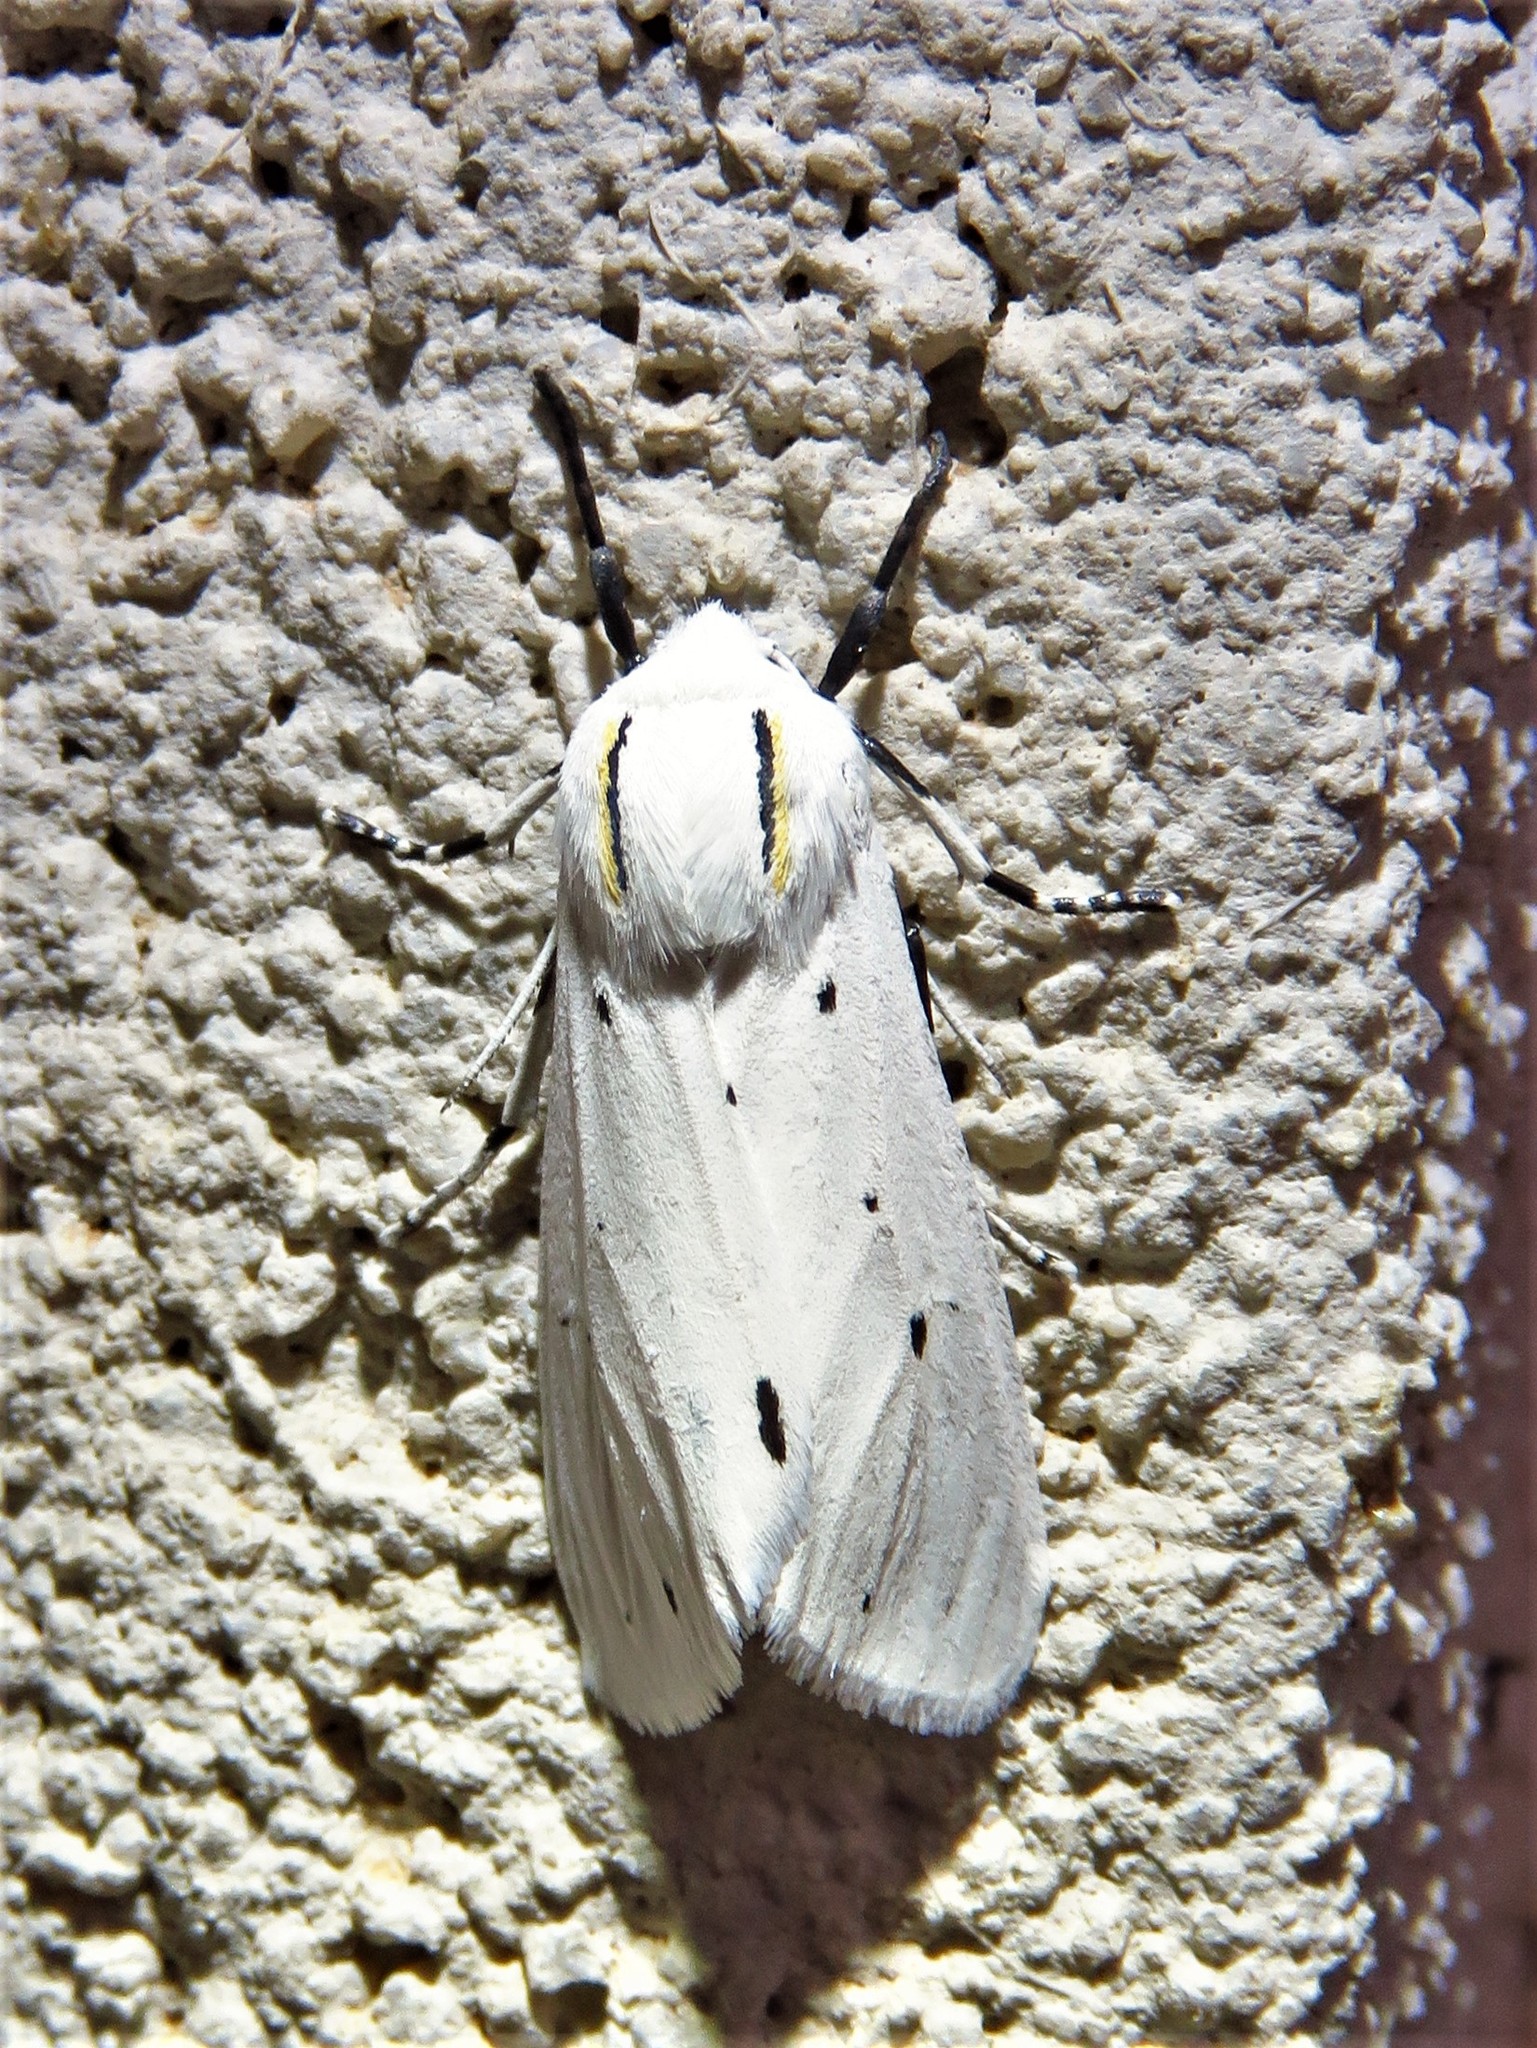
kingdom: Animalia
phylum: Arthropoda
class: Insecta
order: Lepidoptera
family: Erebidae
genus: Ectypia
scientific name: Ectypia bivittata
